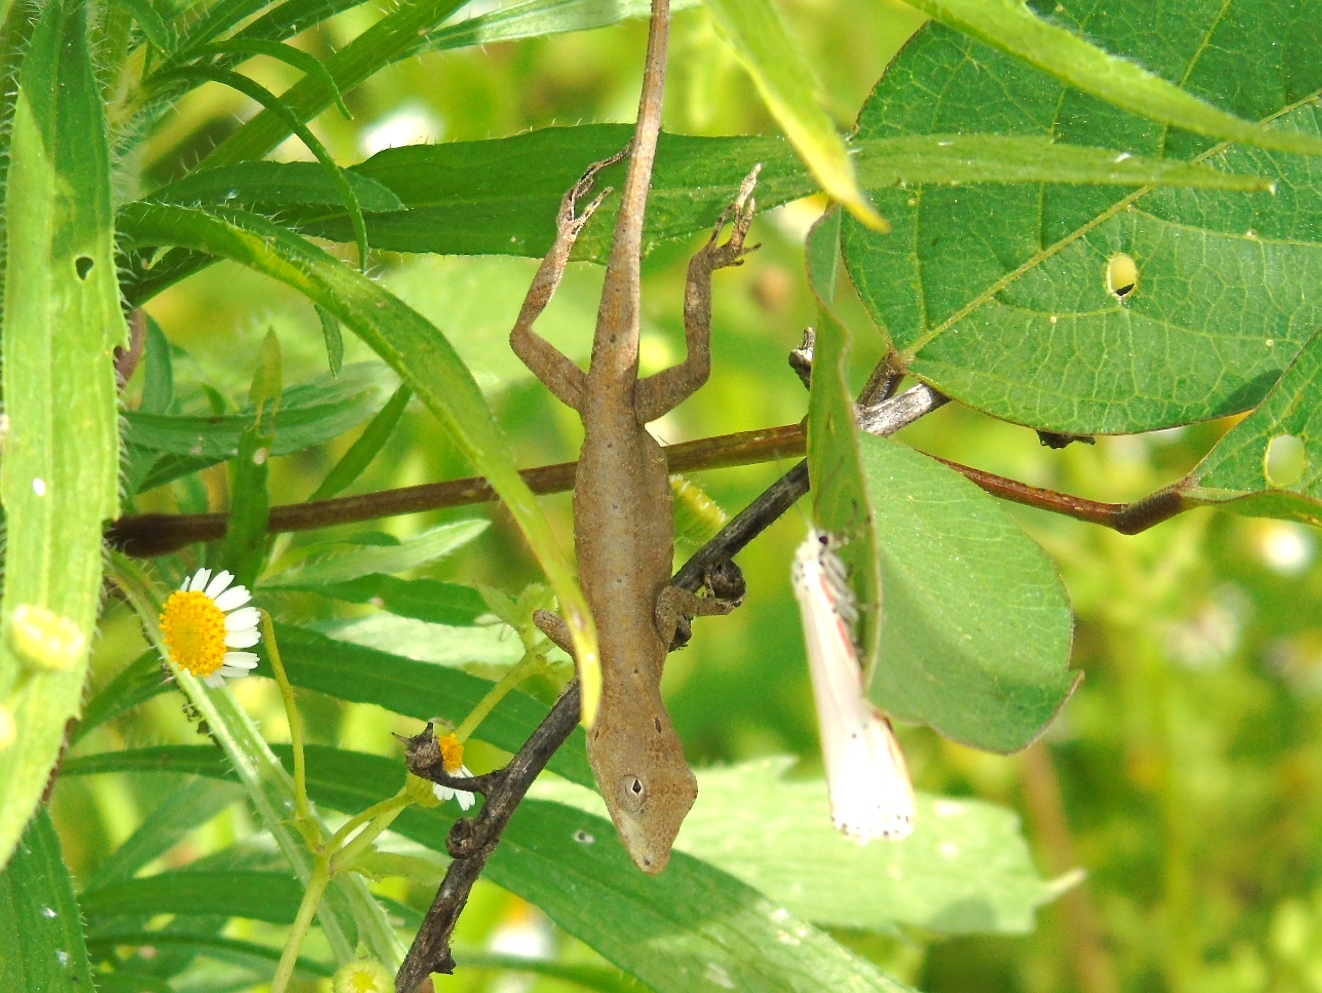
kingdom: Animalia
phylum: Chordata
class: Squamata
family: Dactyloidae
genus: Anolis
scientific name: Anolis nebulosus
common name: Clouded anole
